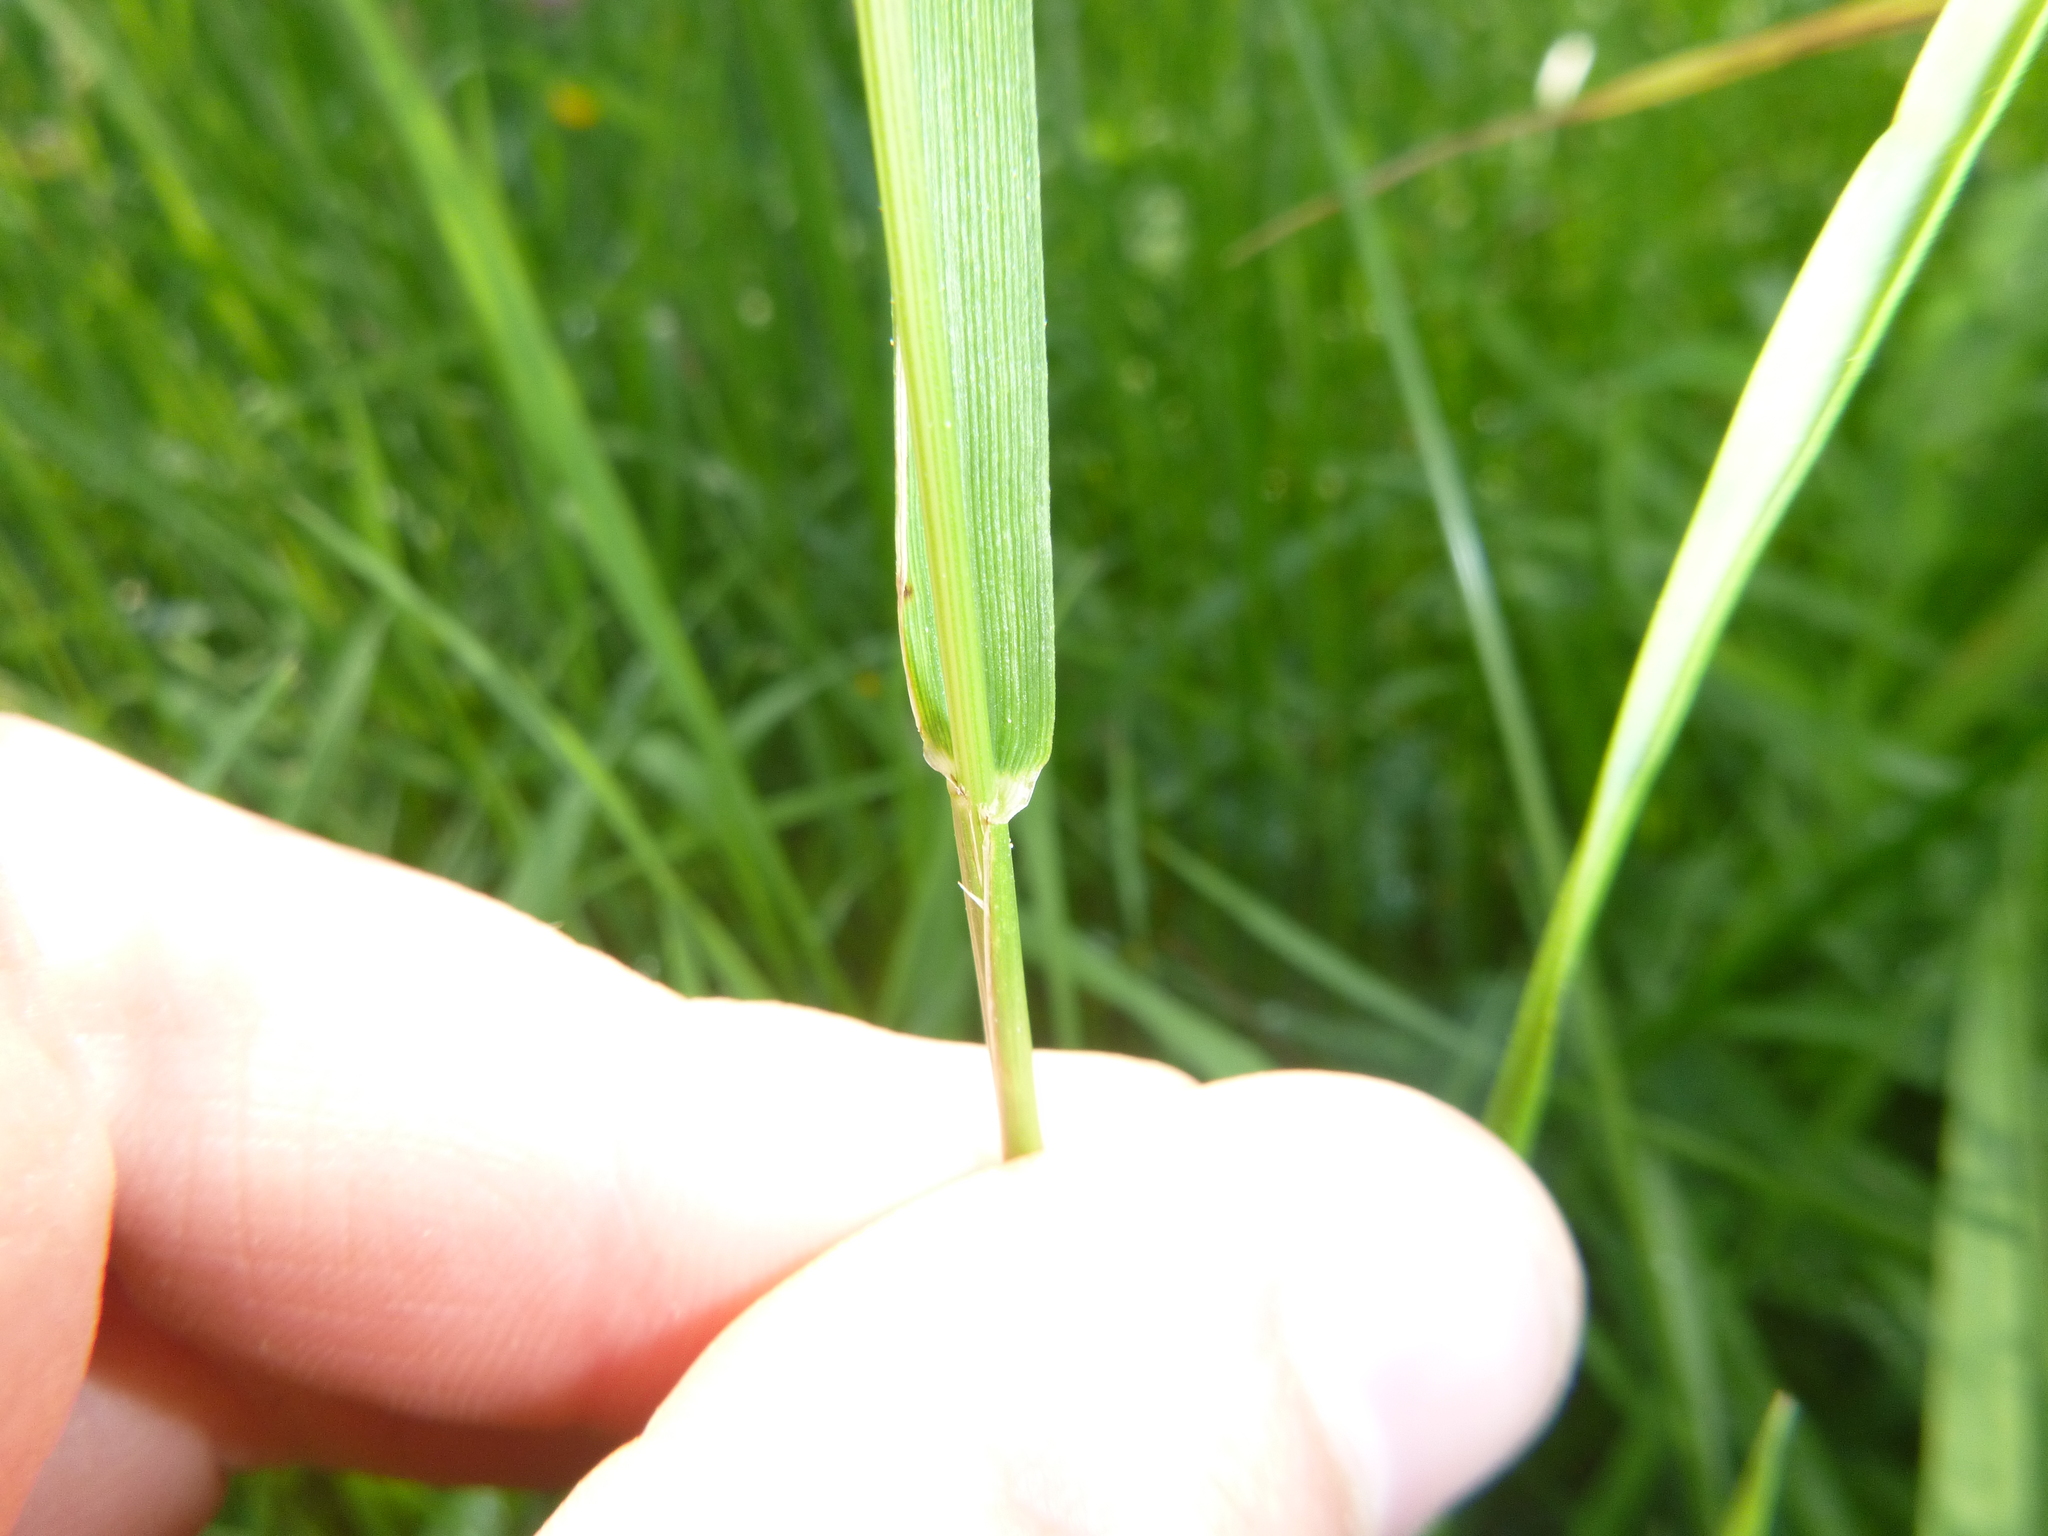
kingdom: Plantae
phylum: Tracheophyta
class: Liliopsida
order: Poales
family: Poaceae
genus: Lolium
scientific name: Lolium pratense
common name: Dover grass
